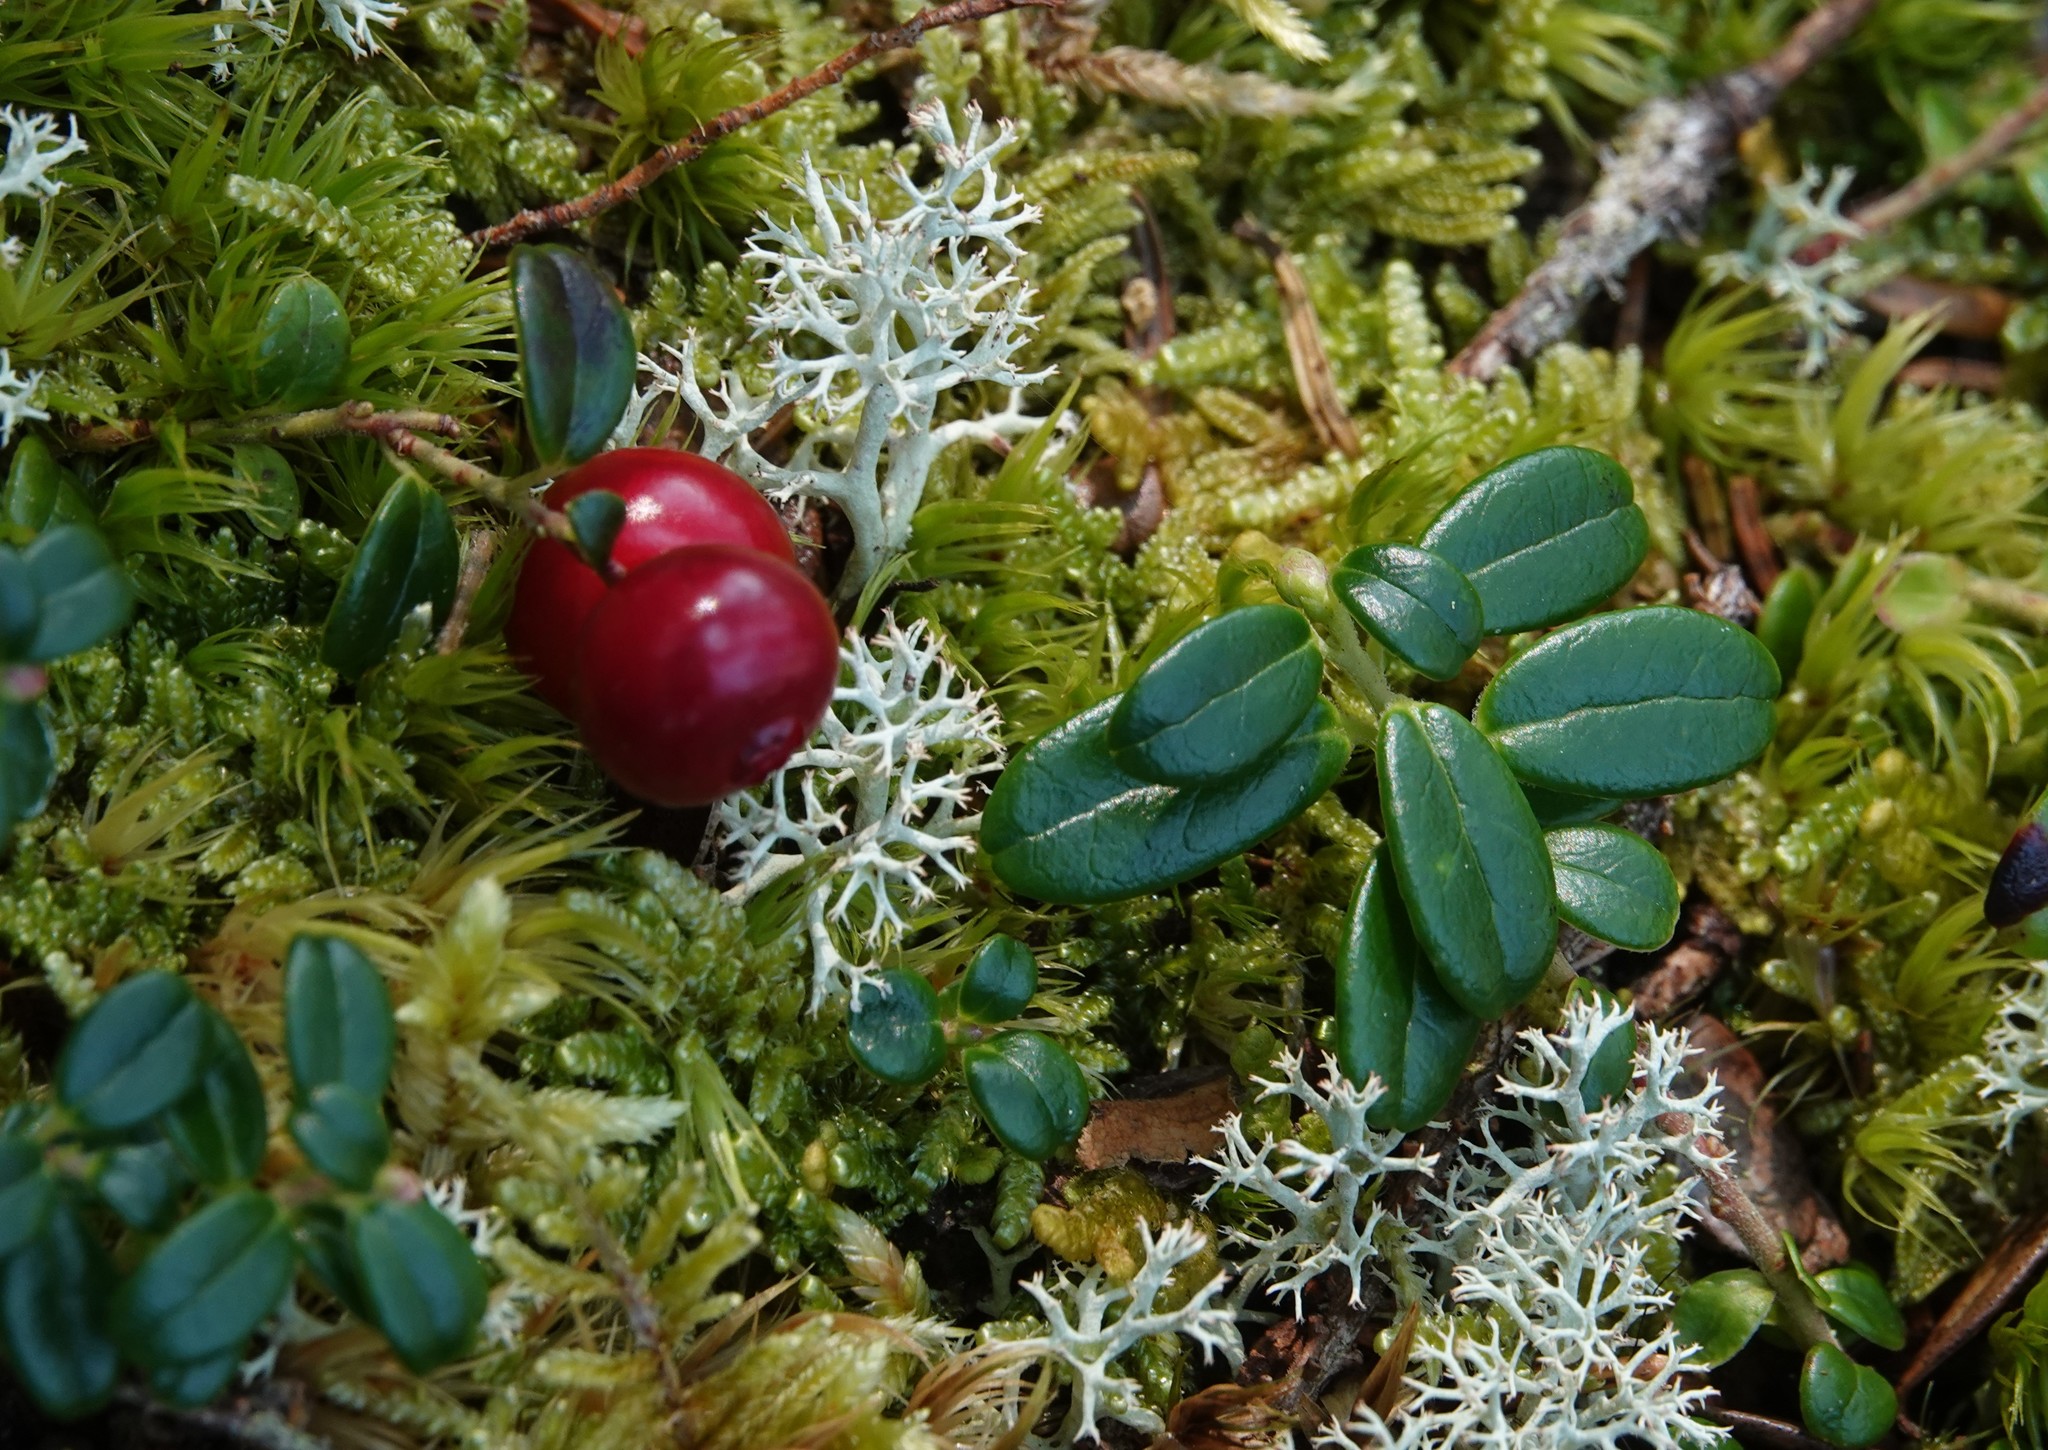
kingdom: Plantae
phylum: Tracheophyta
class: Magnoliopsida
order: Ericales
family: Ericaceae
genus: Vaccinium
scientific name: Vaccinium vitis-idaea
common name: Cowberry
